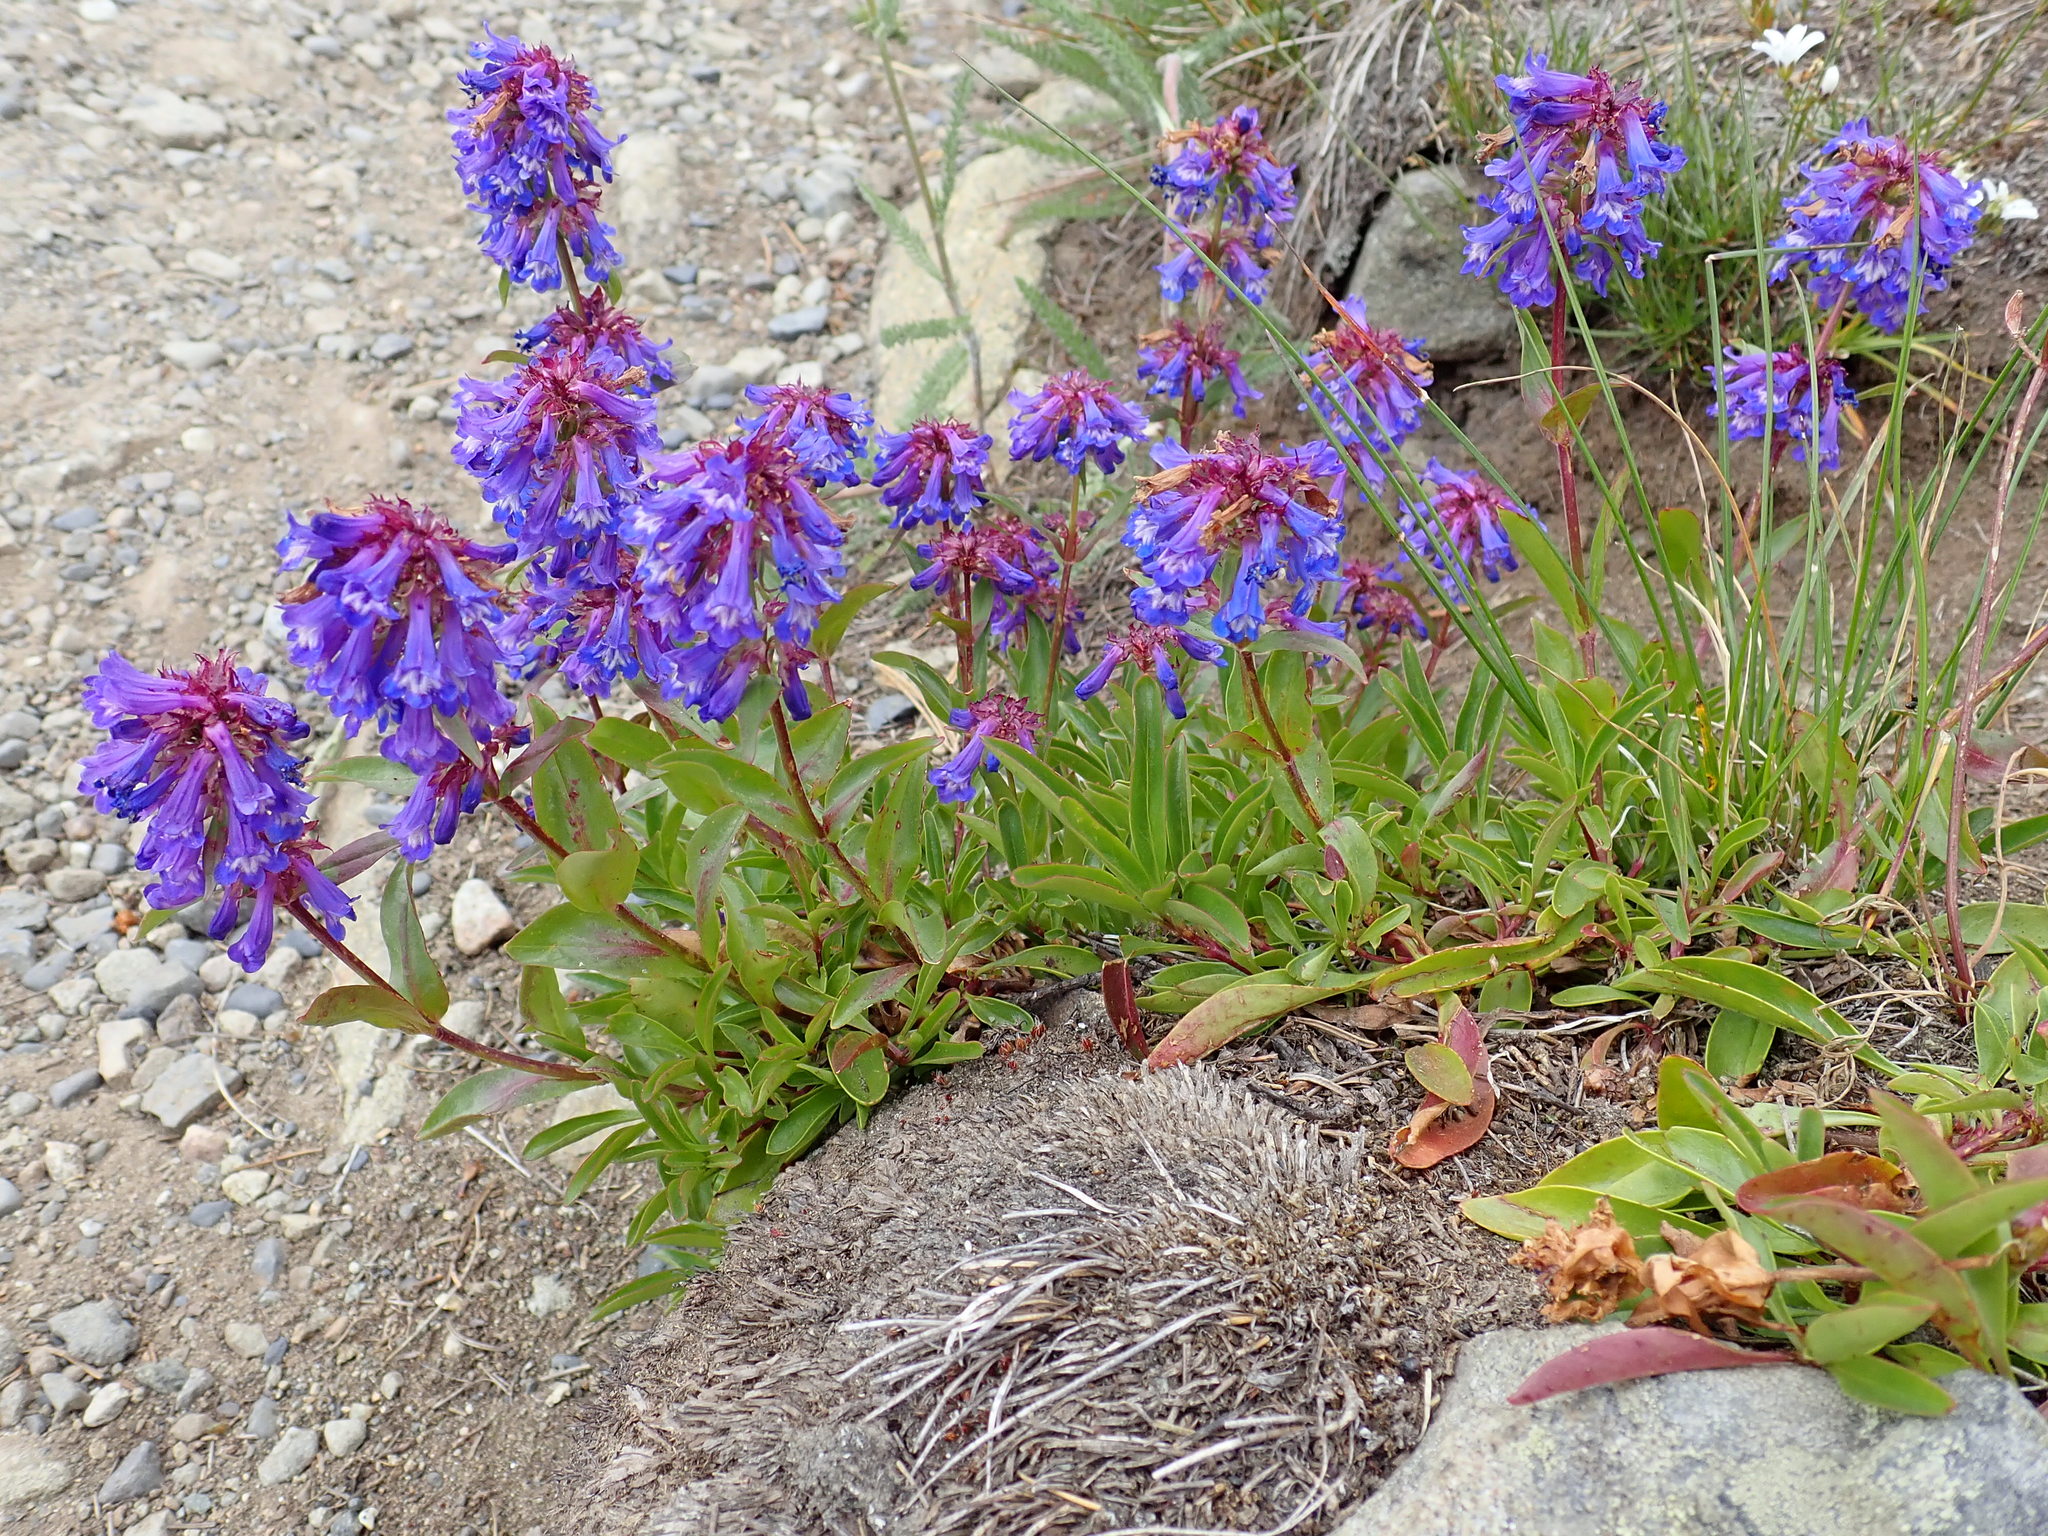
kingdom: Plantae
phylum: Tracheophyta
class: Magnoliopsida
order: Lamiales
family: Plantaginaceae
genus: Penstemon
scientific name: Penstemon procerus
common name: Small-flower penstemon
